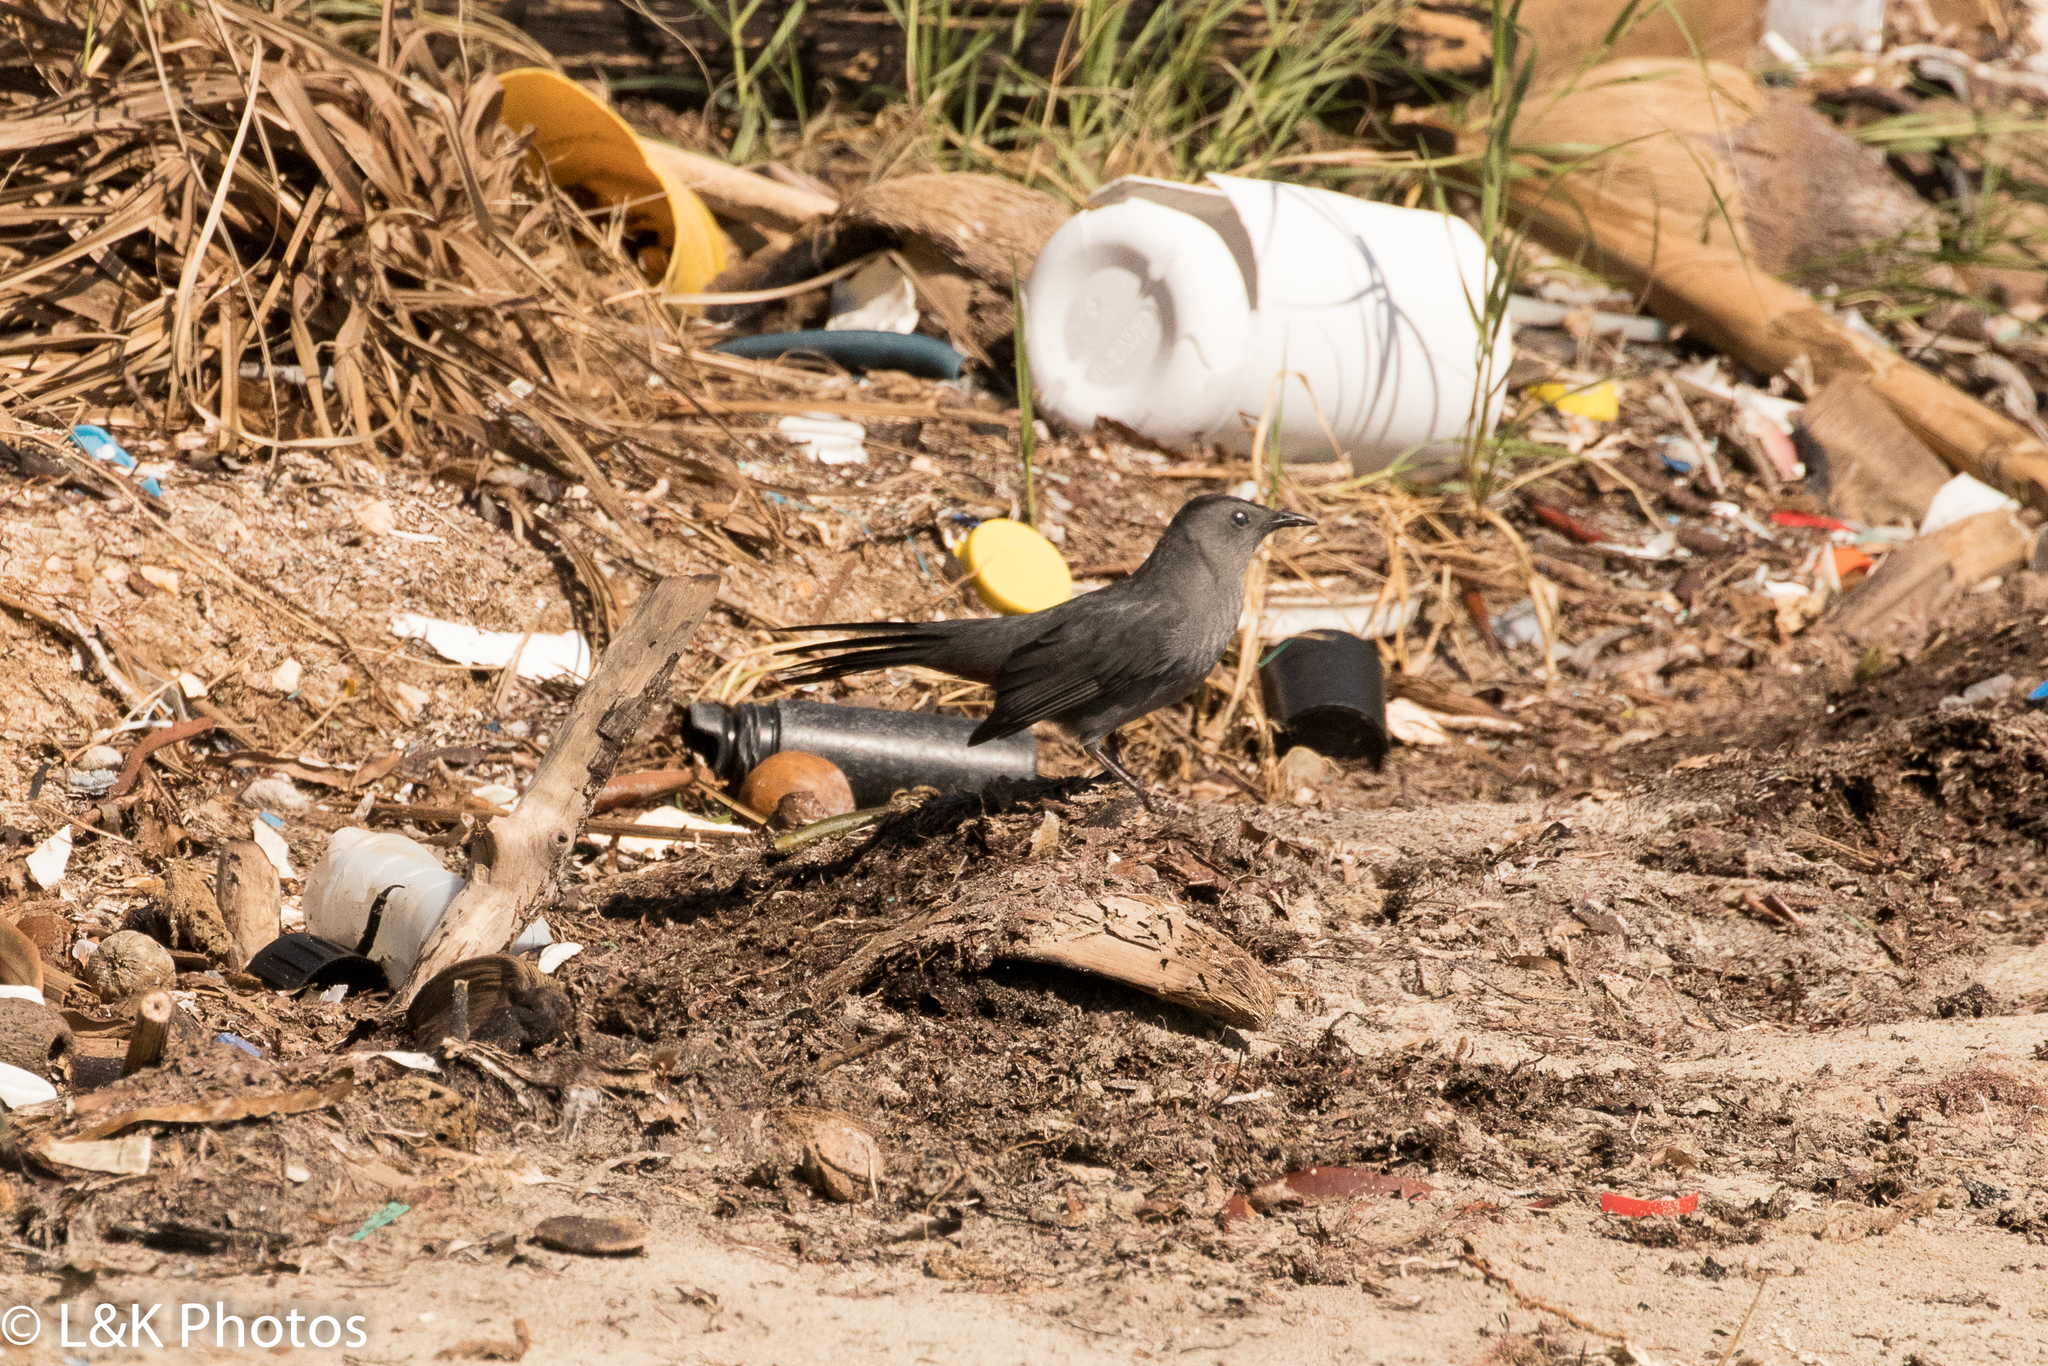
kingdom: Animalia
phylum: Chordata
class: Aves
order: Passeriformes
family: Mimidae
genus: Dumetella
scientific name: Dumetella carolinensis
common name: Gray catbird
